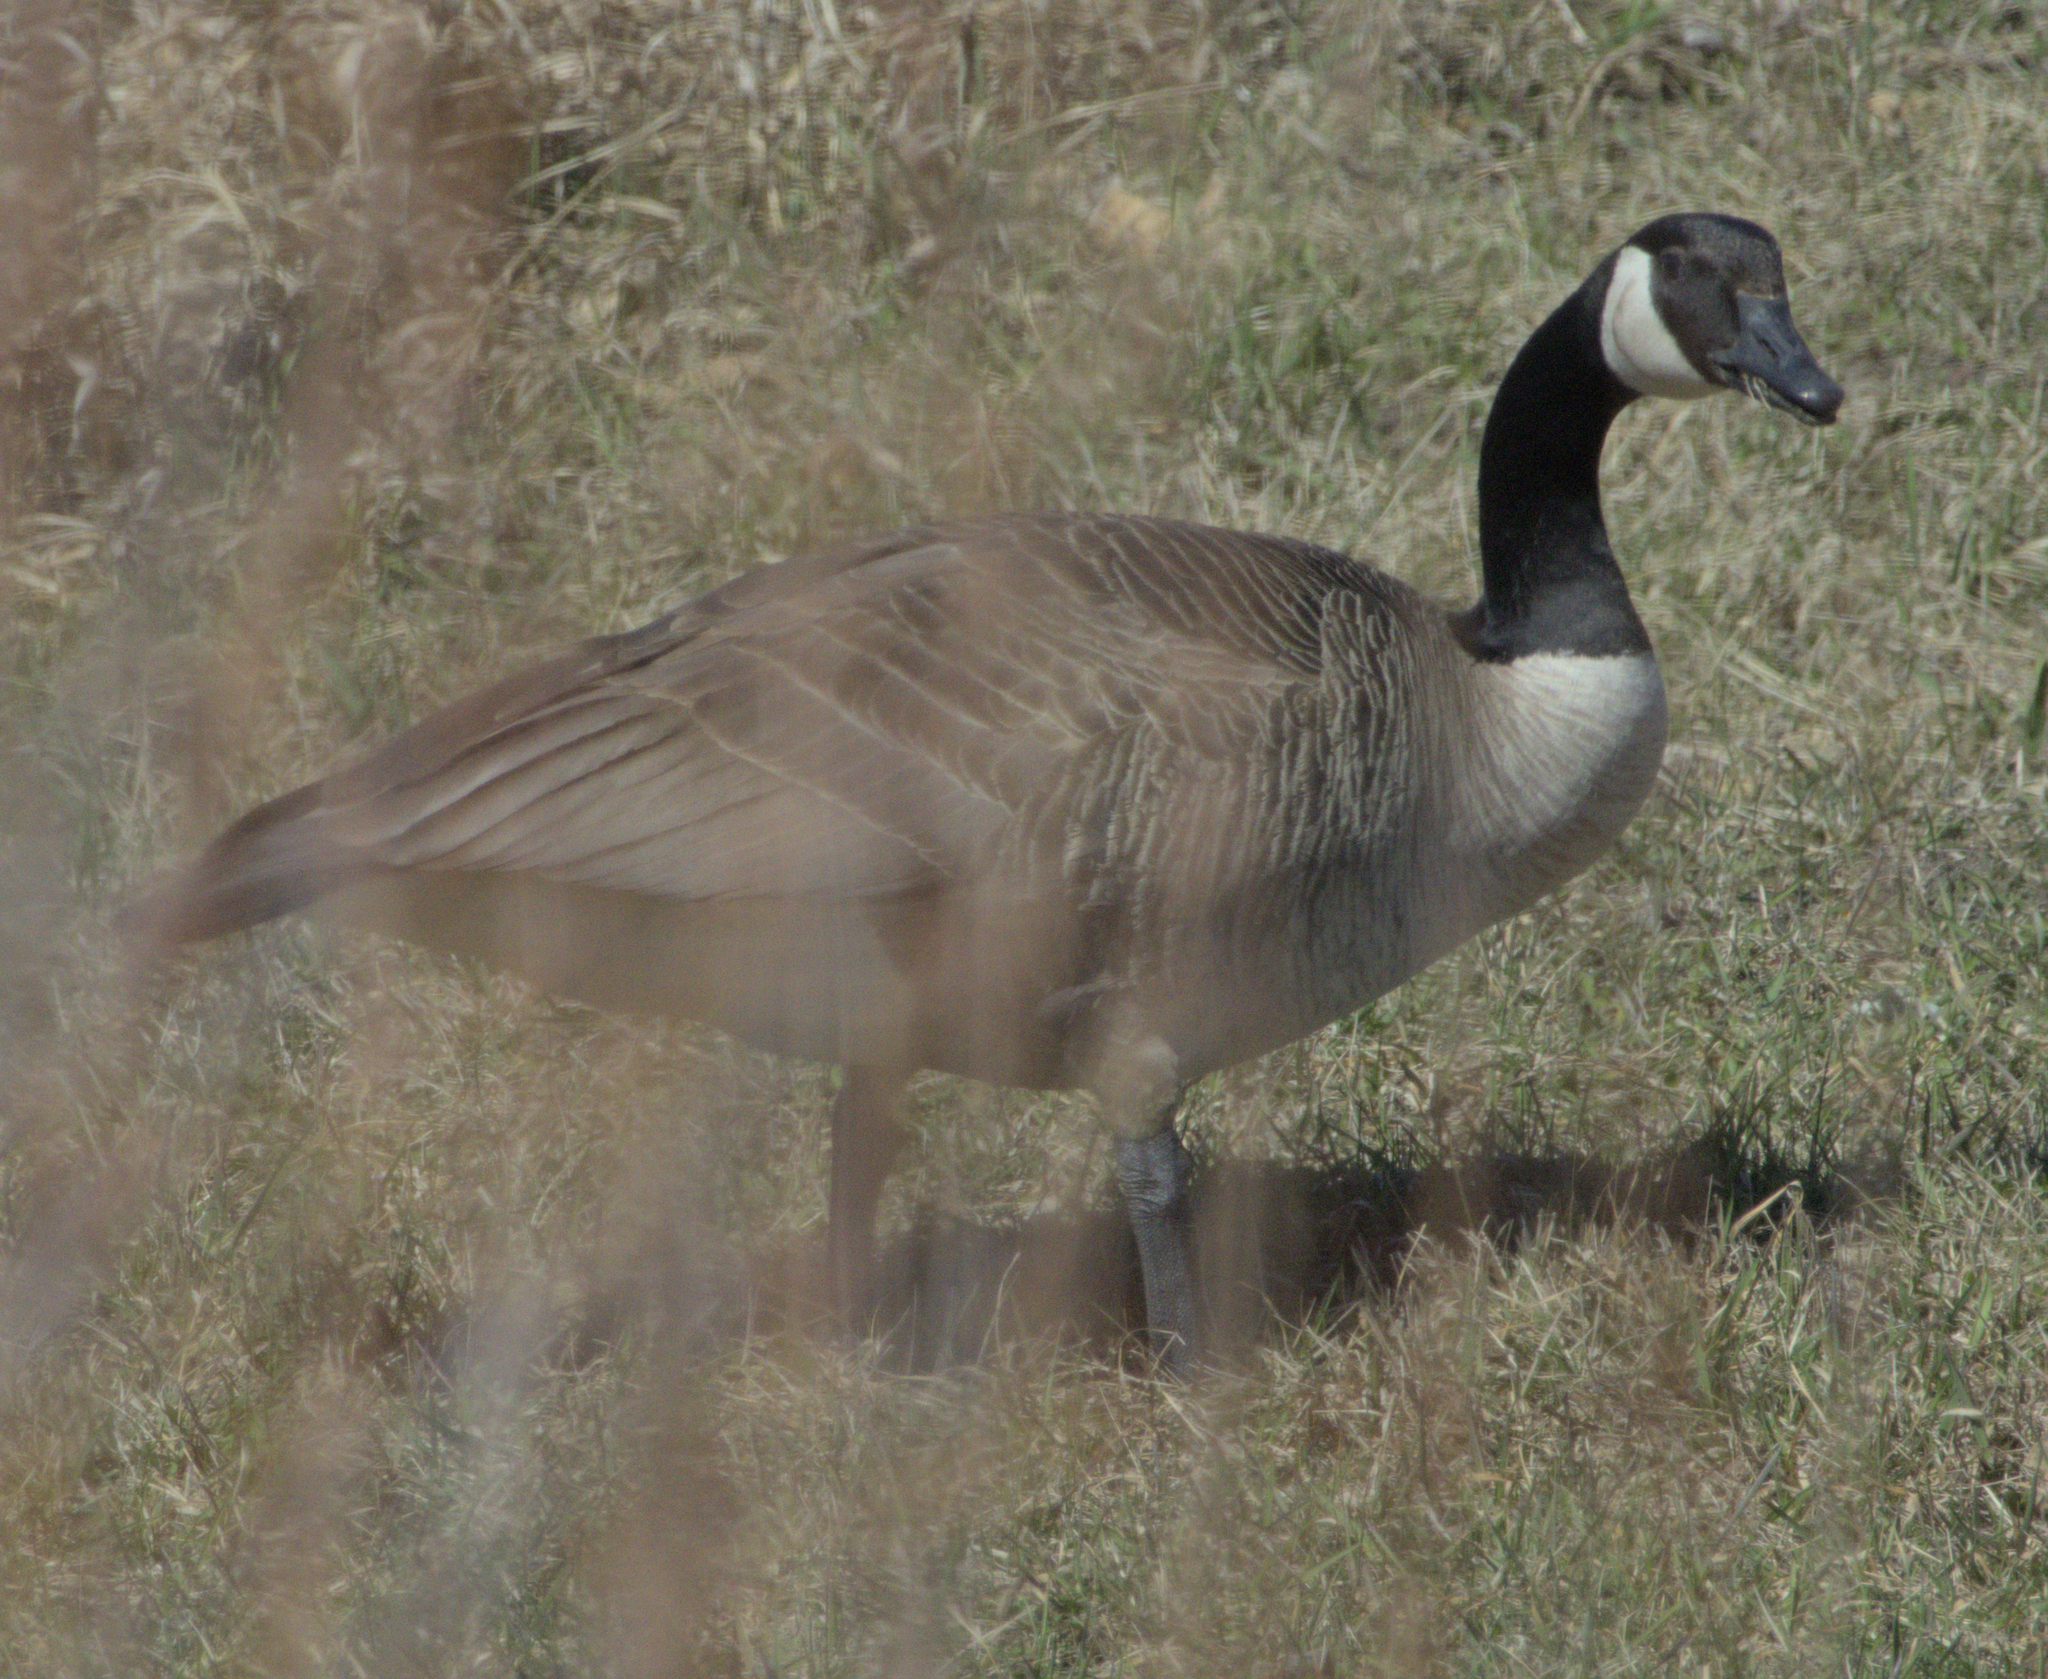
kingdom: Animalia
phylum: Chordata
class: Aves
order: Anseriformes
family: Anatidae
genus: Branta
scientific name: Branta canadensis
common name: Canada goose
